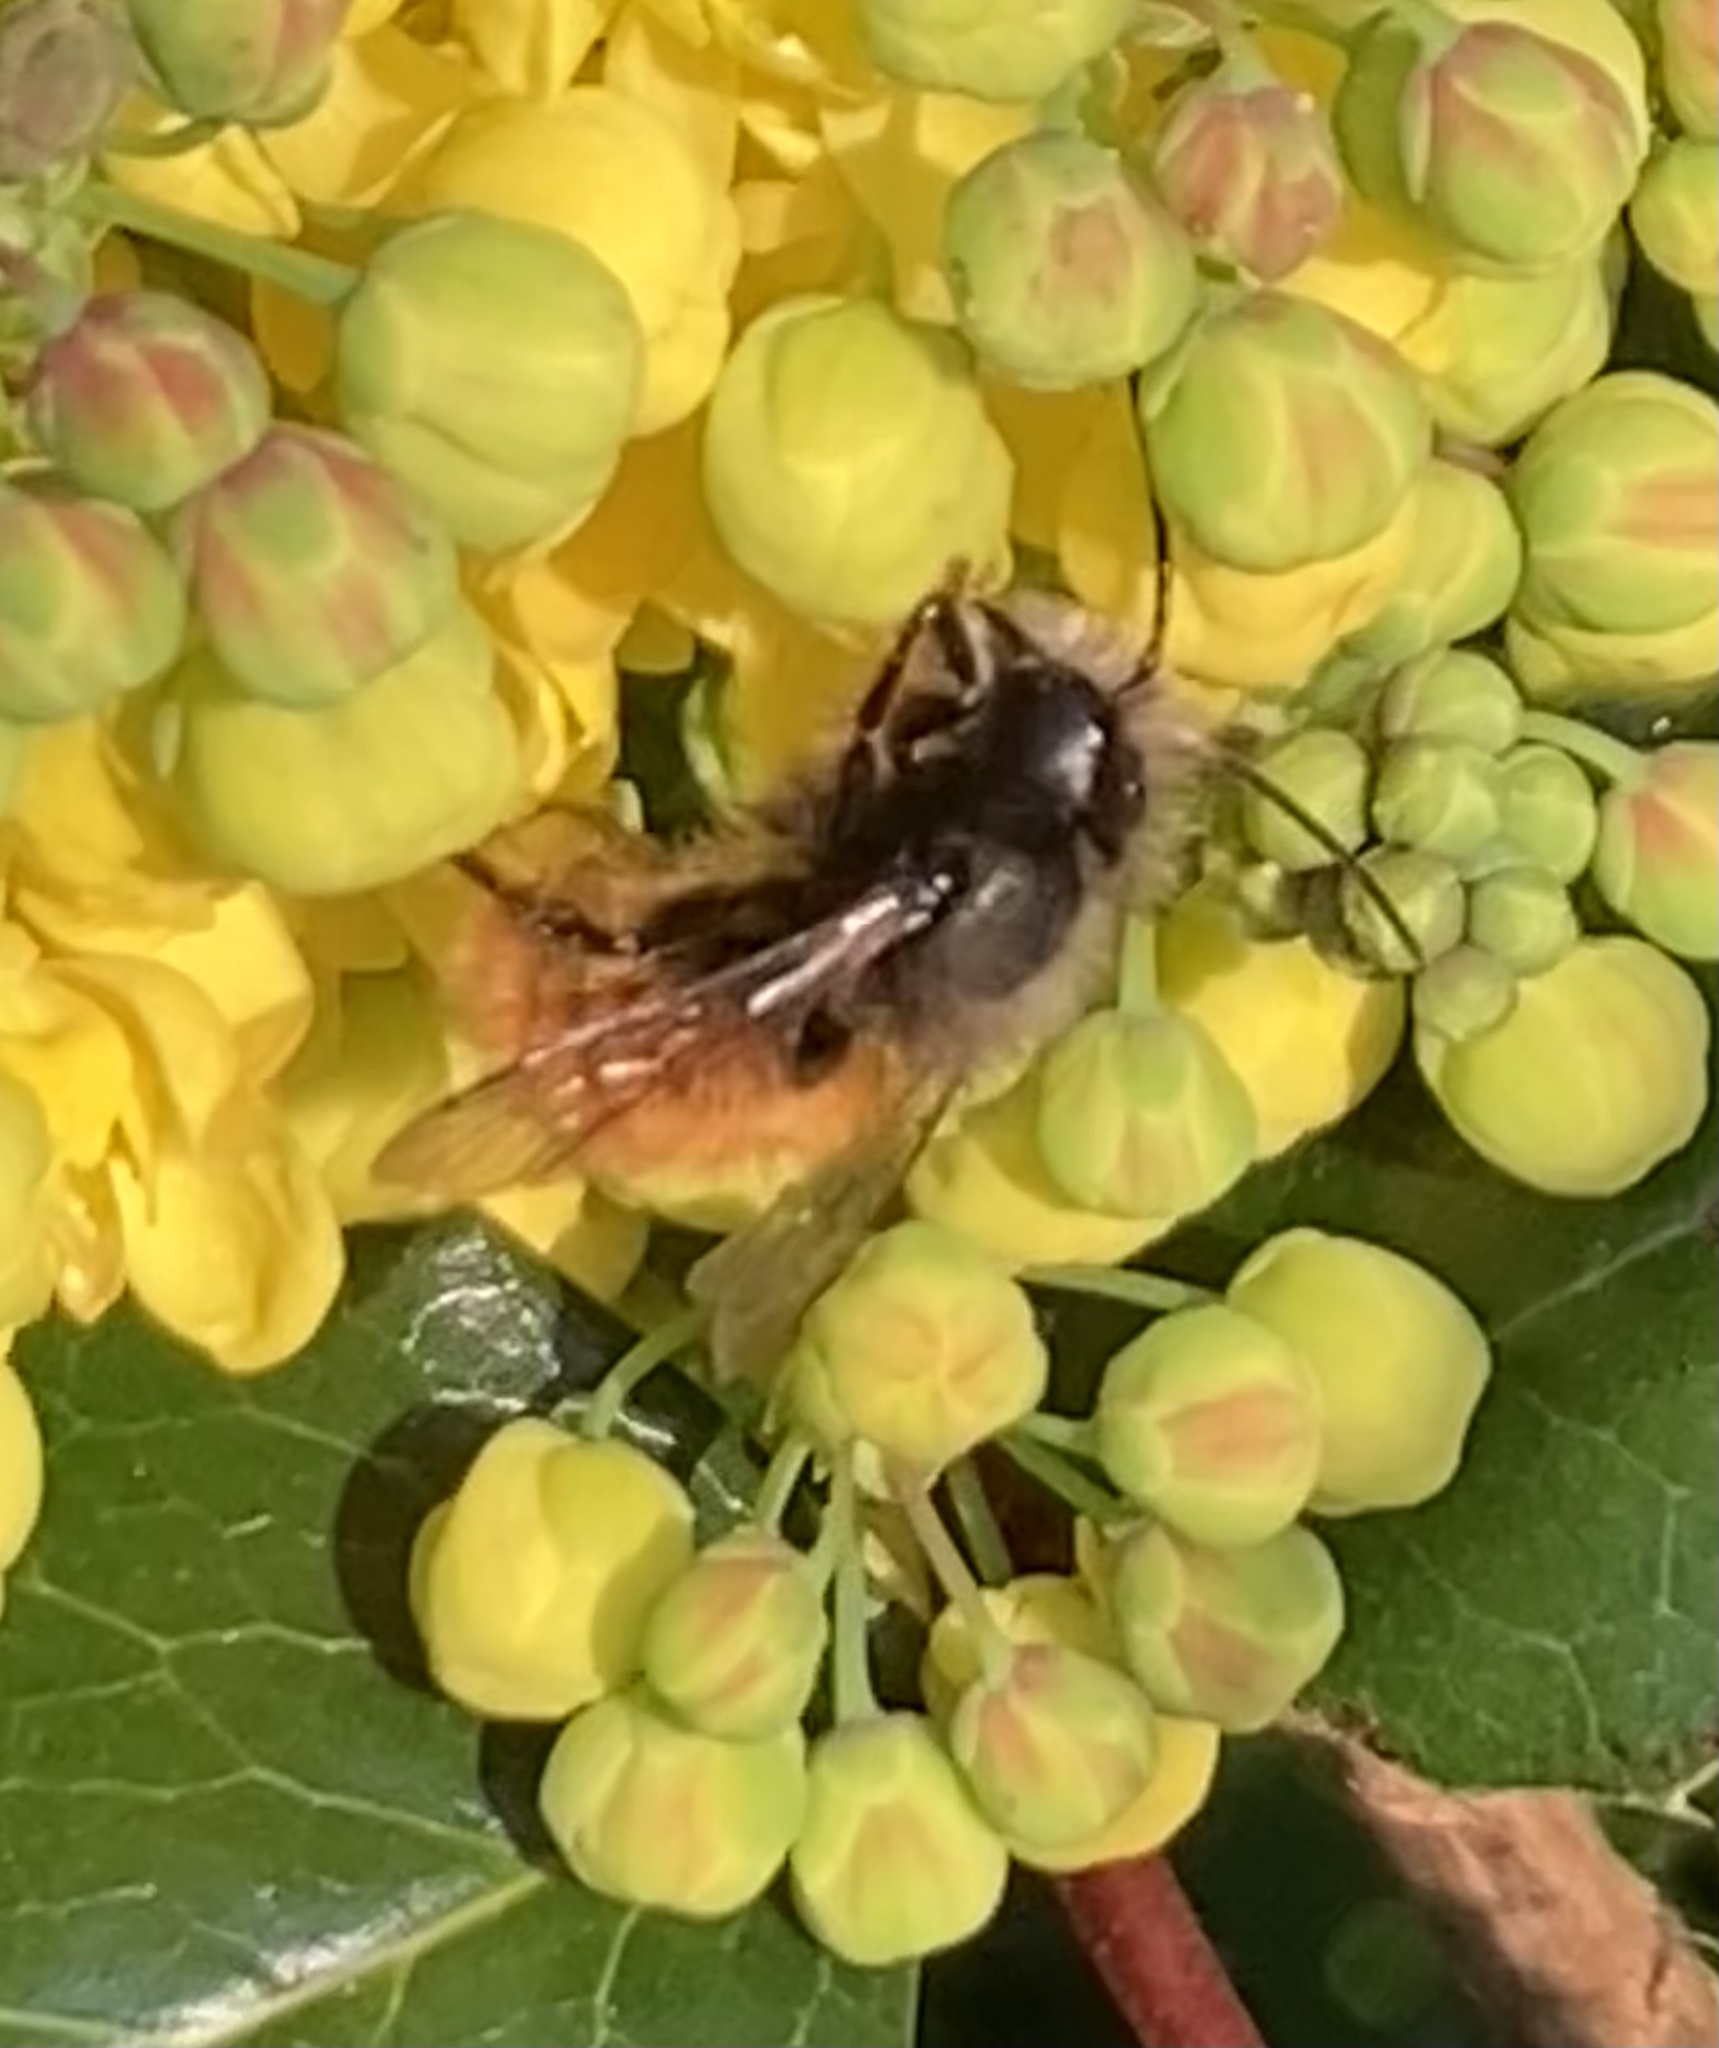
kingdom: Animalia
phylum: Arthropoda
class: Insecta
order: Hymenoptera
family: Megachilidae
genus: Osmia
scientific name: Osmia cornuta
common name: Mason bee
